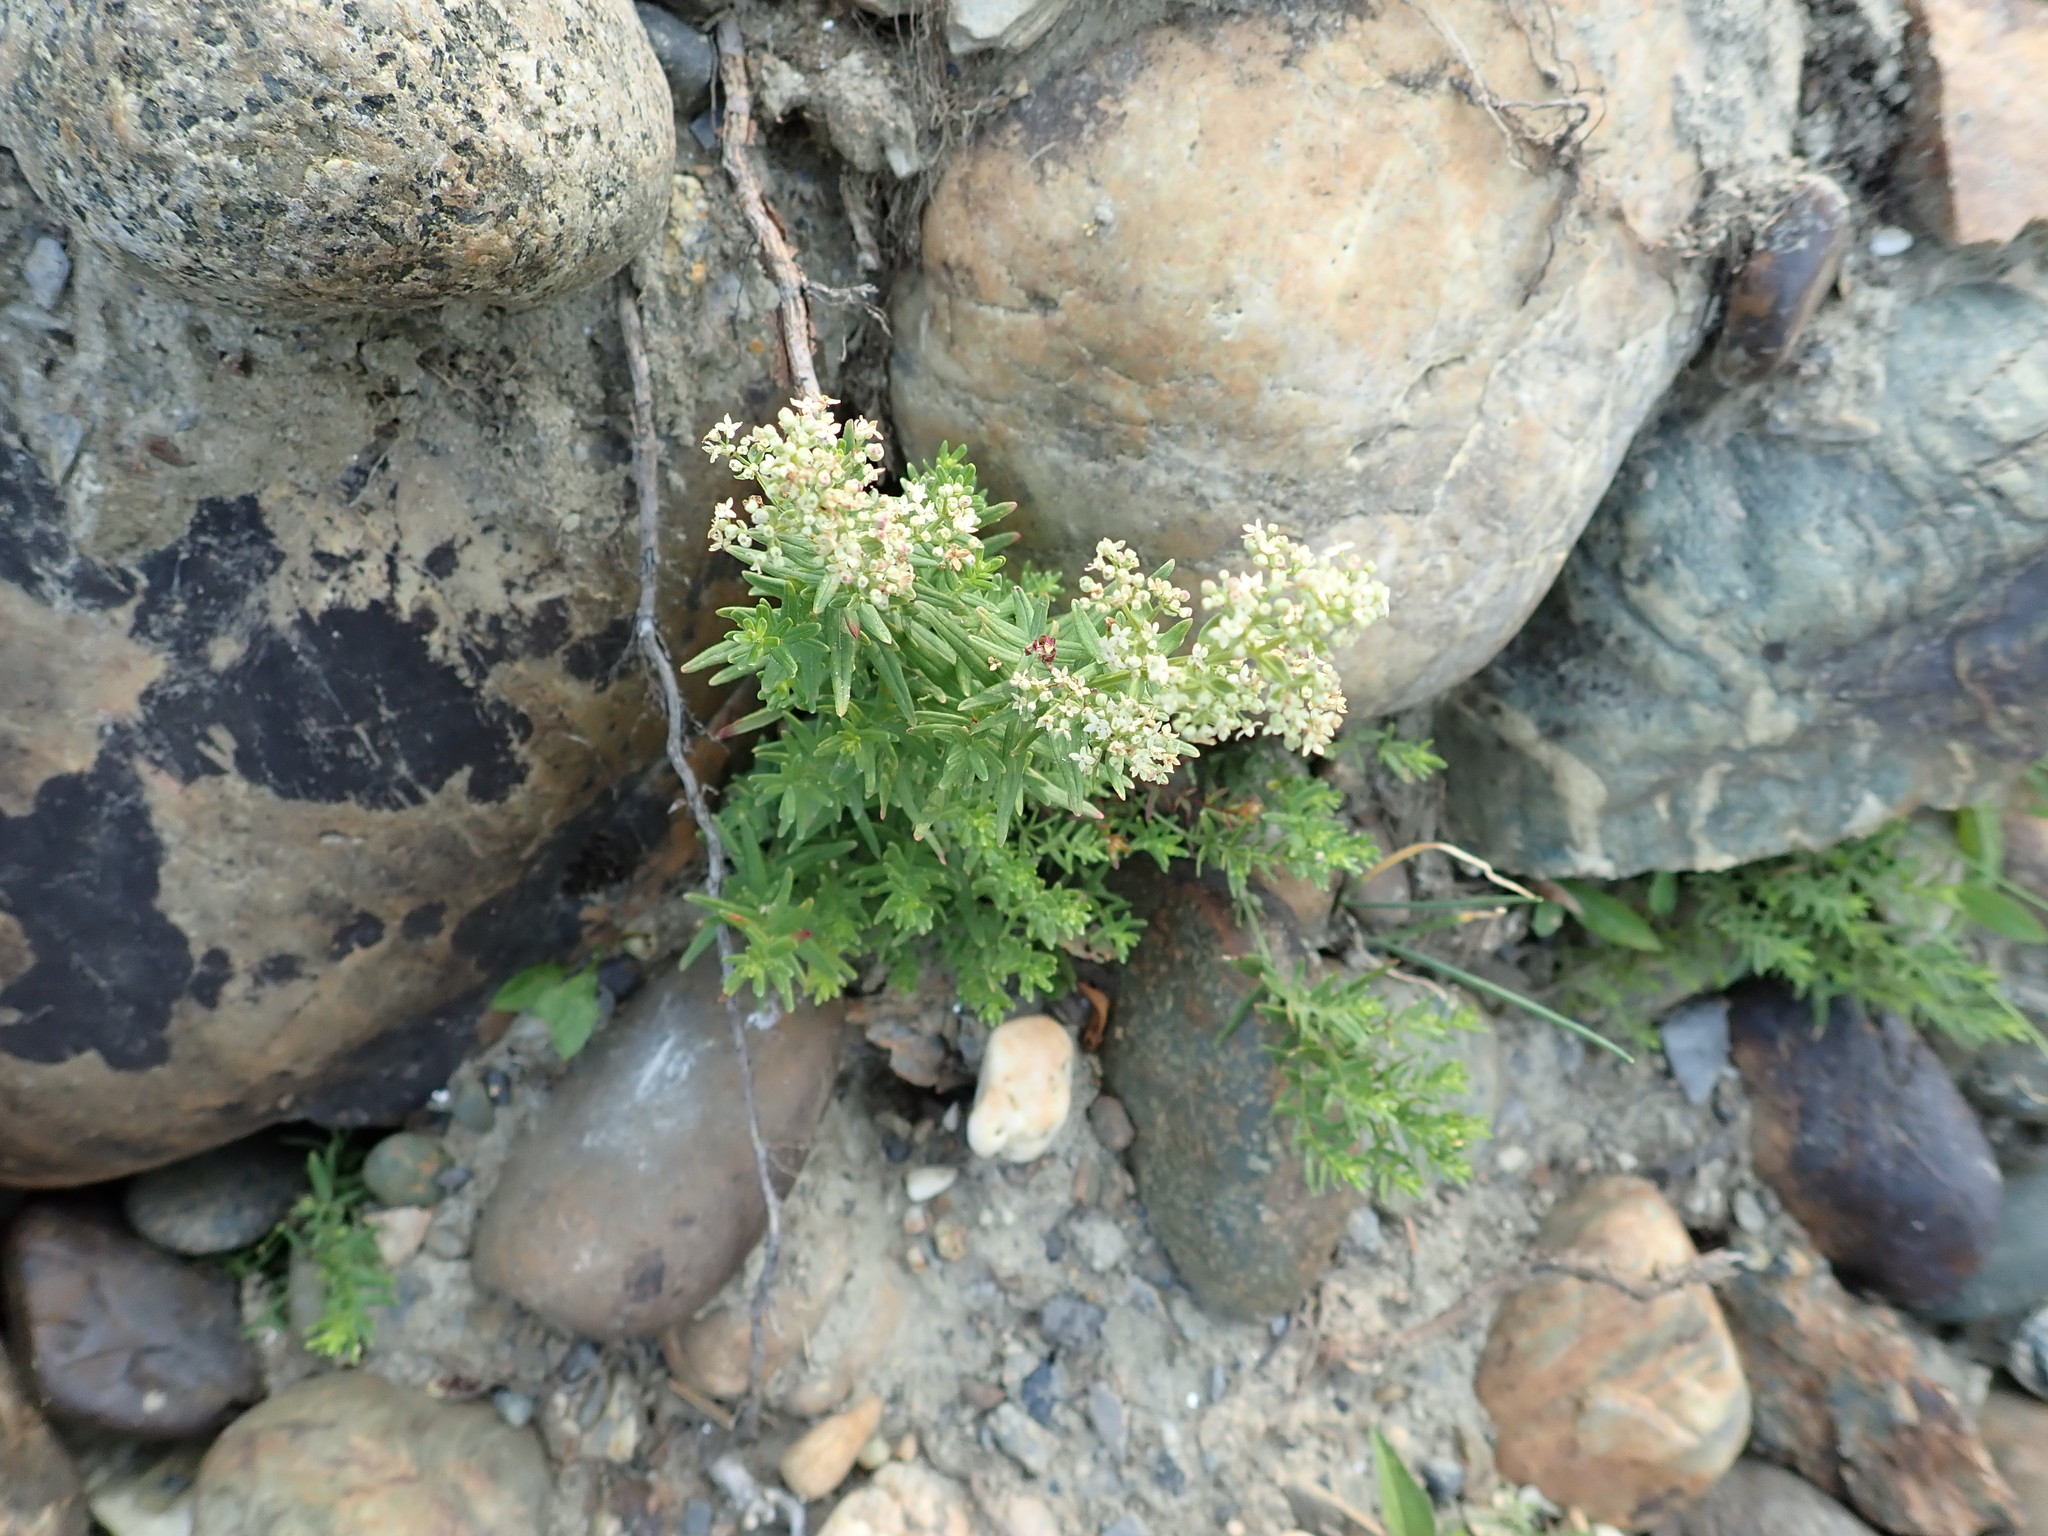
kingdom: Plantae
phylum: Tracheophyta
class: Magnoliopsida
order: Gentianales
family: Rubiaceae
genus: Galium
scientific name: Galium boreale
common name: Northern bedstraw
